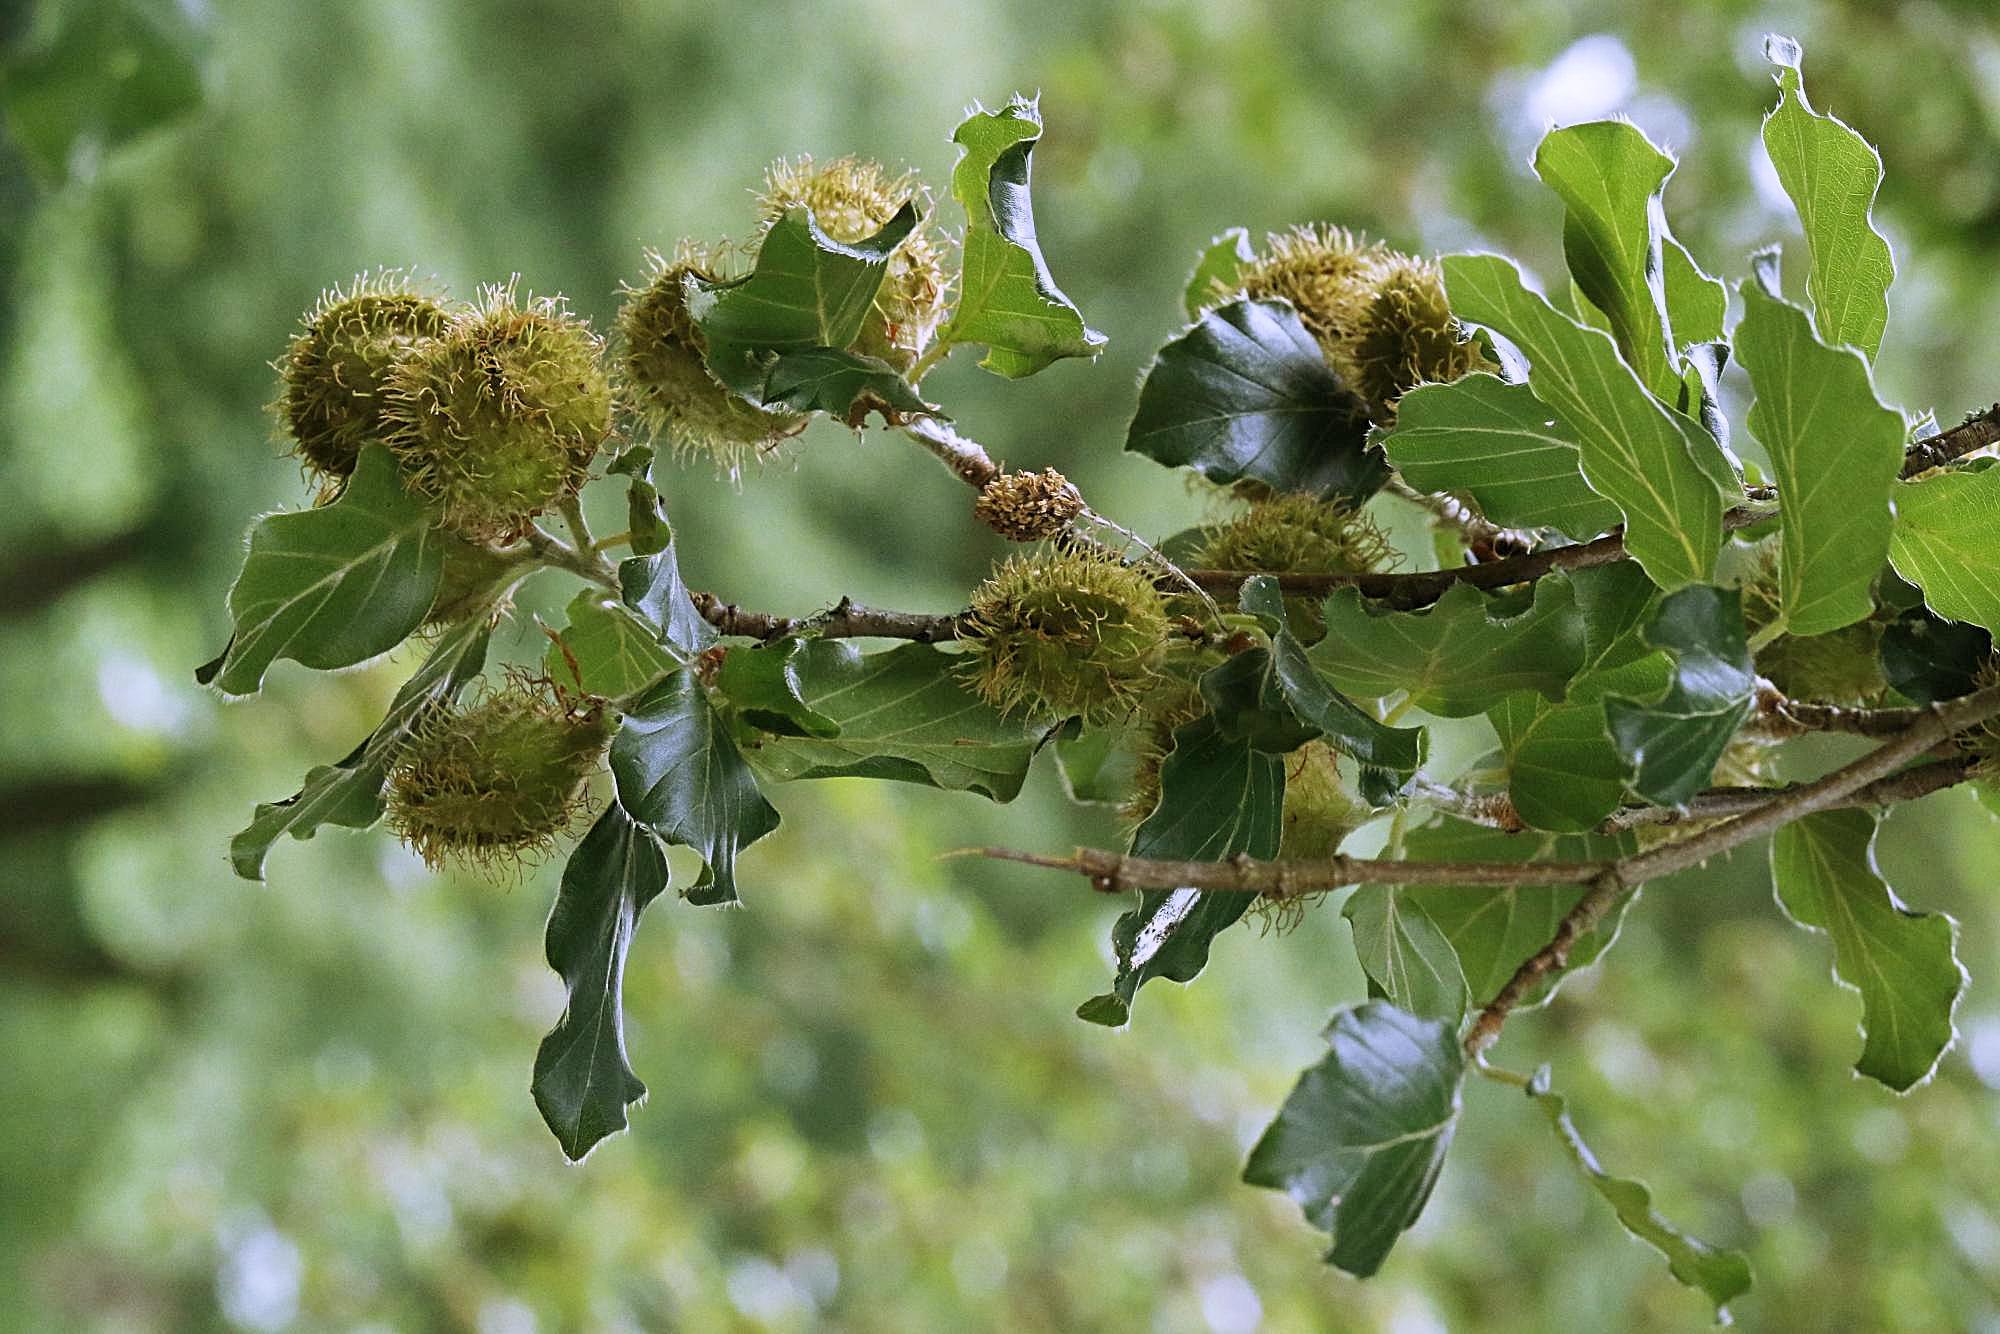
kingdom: Plantae
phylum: Tracheophyta
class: Magnoliopsida
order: Fagales
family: Fagaceae
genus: Fagus
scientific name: Fagus sylvatica
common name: Beech
